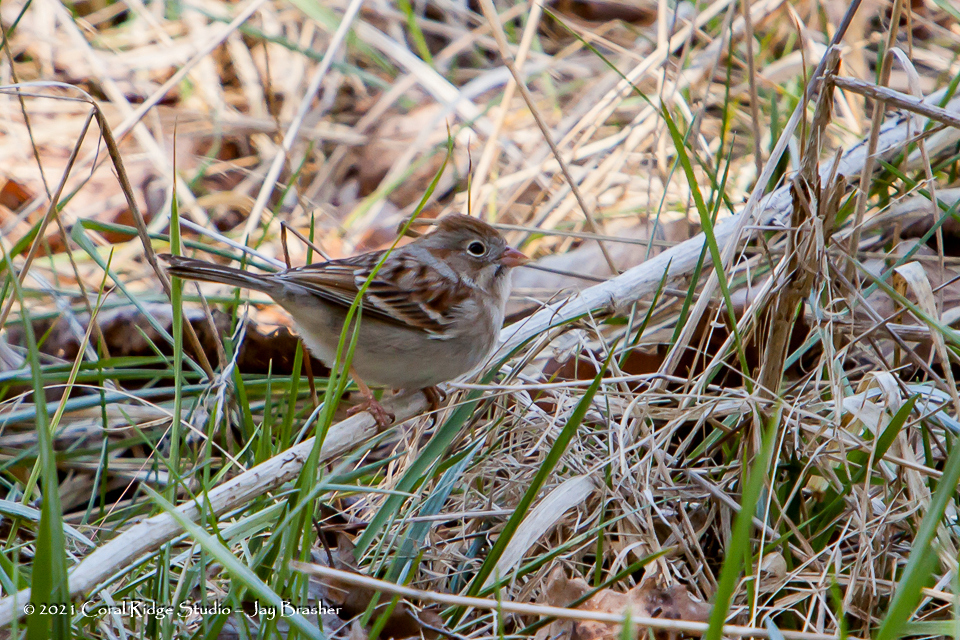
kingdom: Animalia
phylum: Chordata
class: Aves
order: Passeriformes
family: Passerellidae
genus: Spizella
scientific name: Spizella pusilla
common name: Field sparrow
